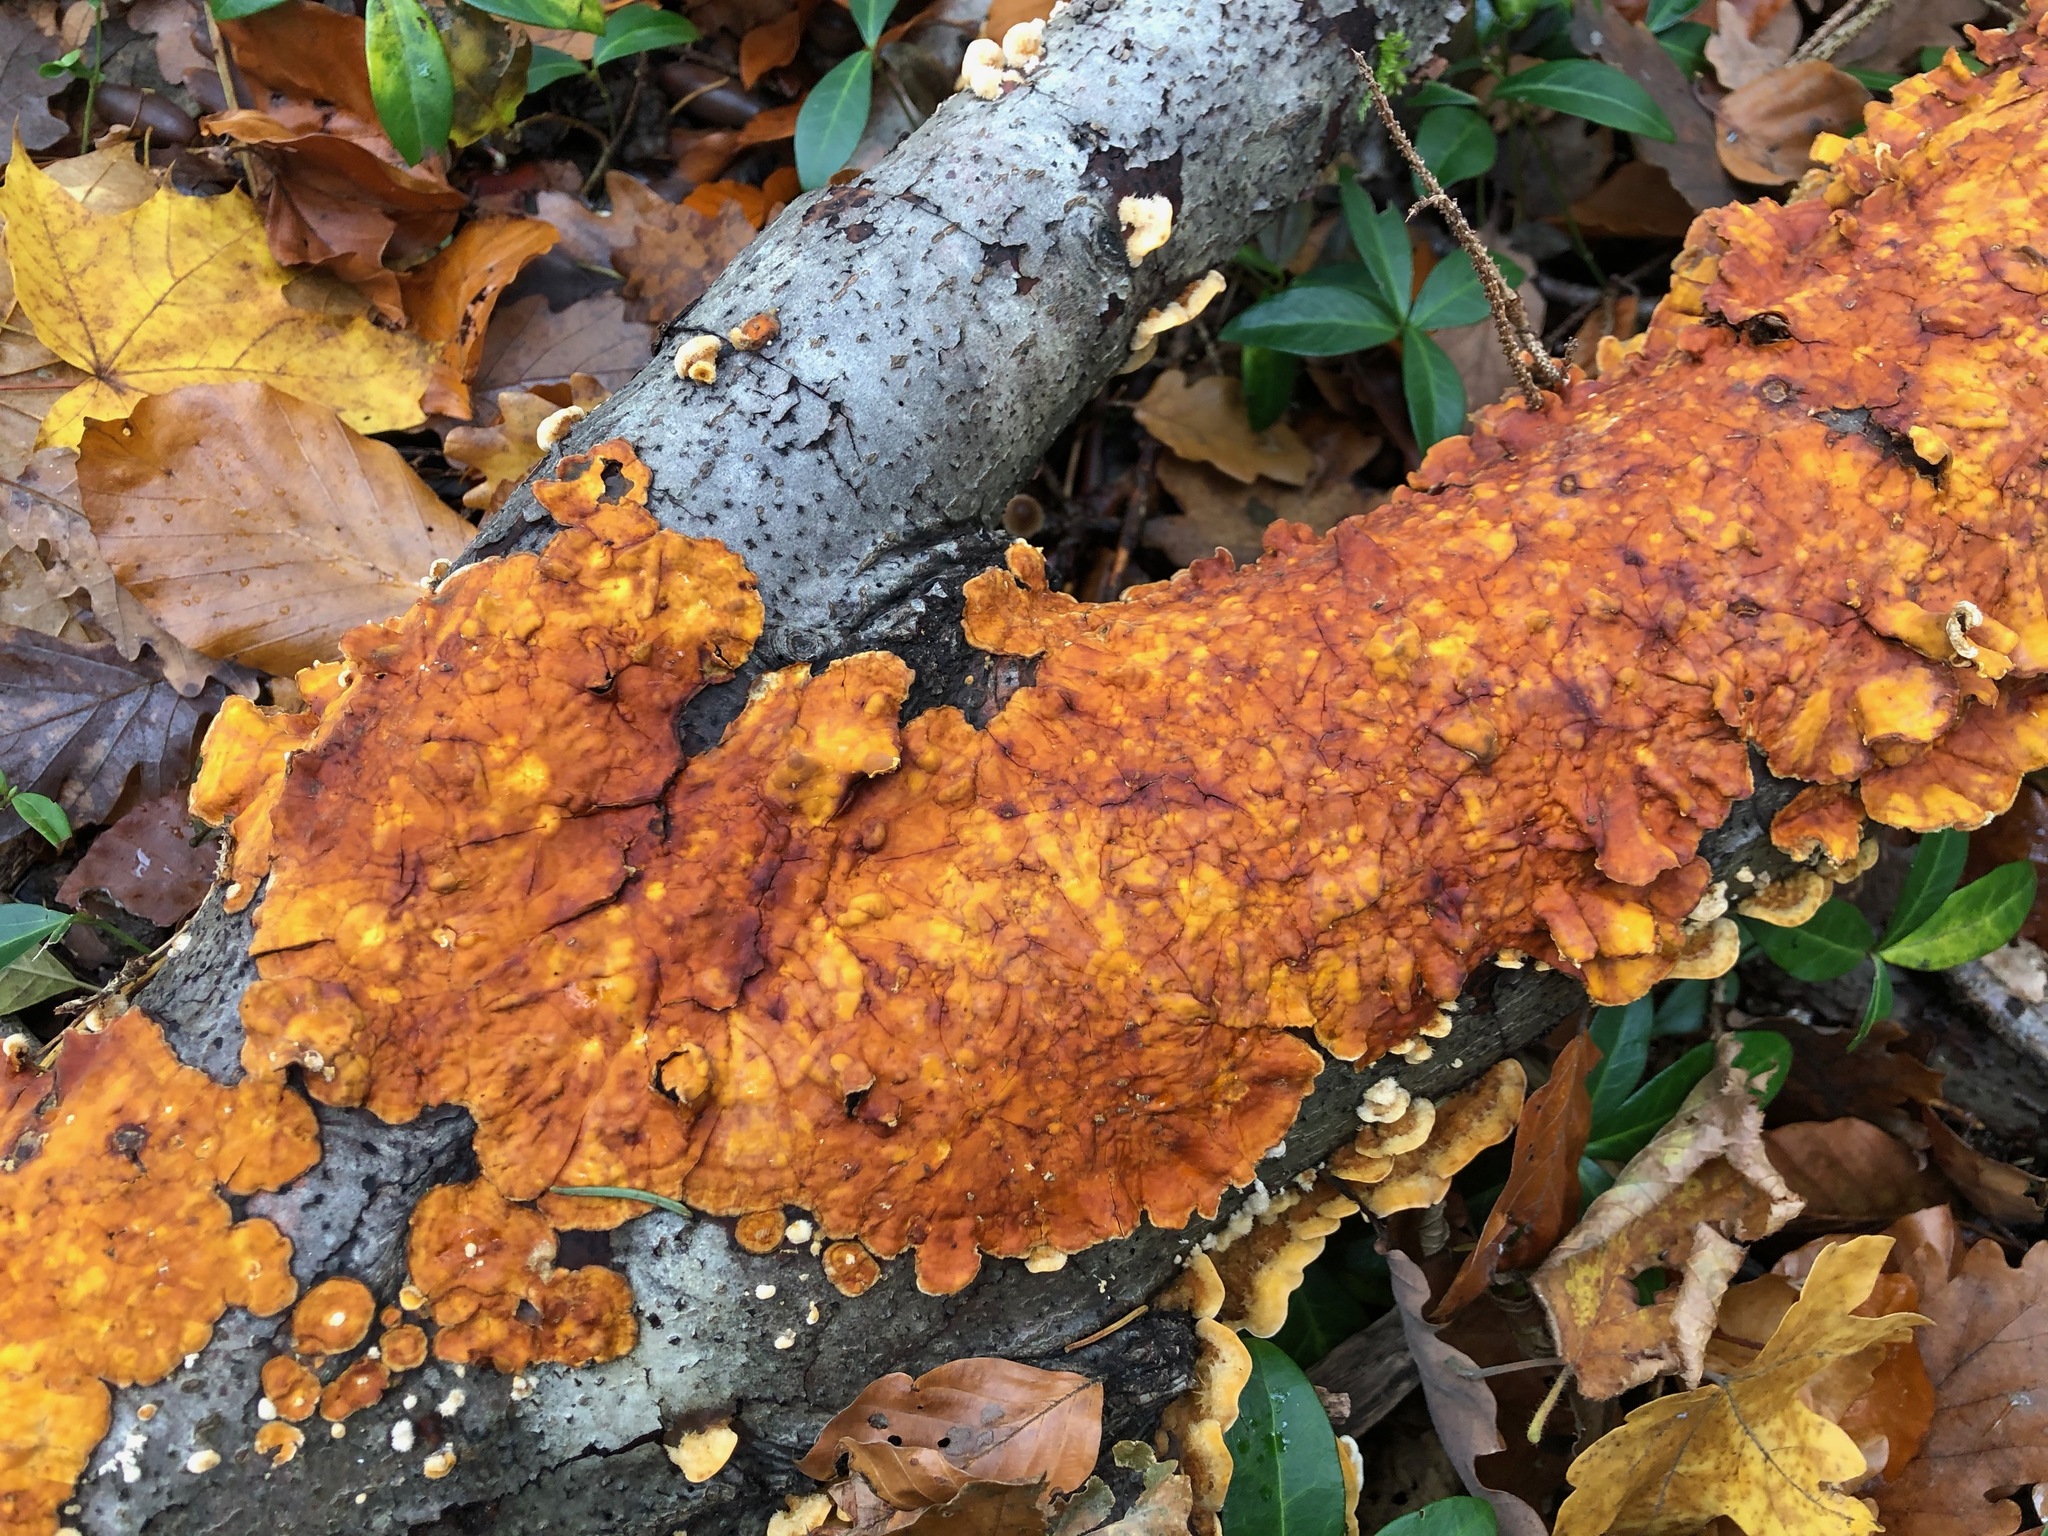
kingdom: Fungi
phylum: Basidiomycota
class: Agaricomycetes
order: Russulales
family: Stereaceae
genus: Stereum
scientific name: Stereum hirsutum
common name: Hairy curtain crust
